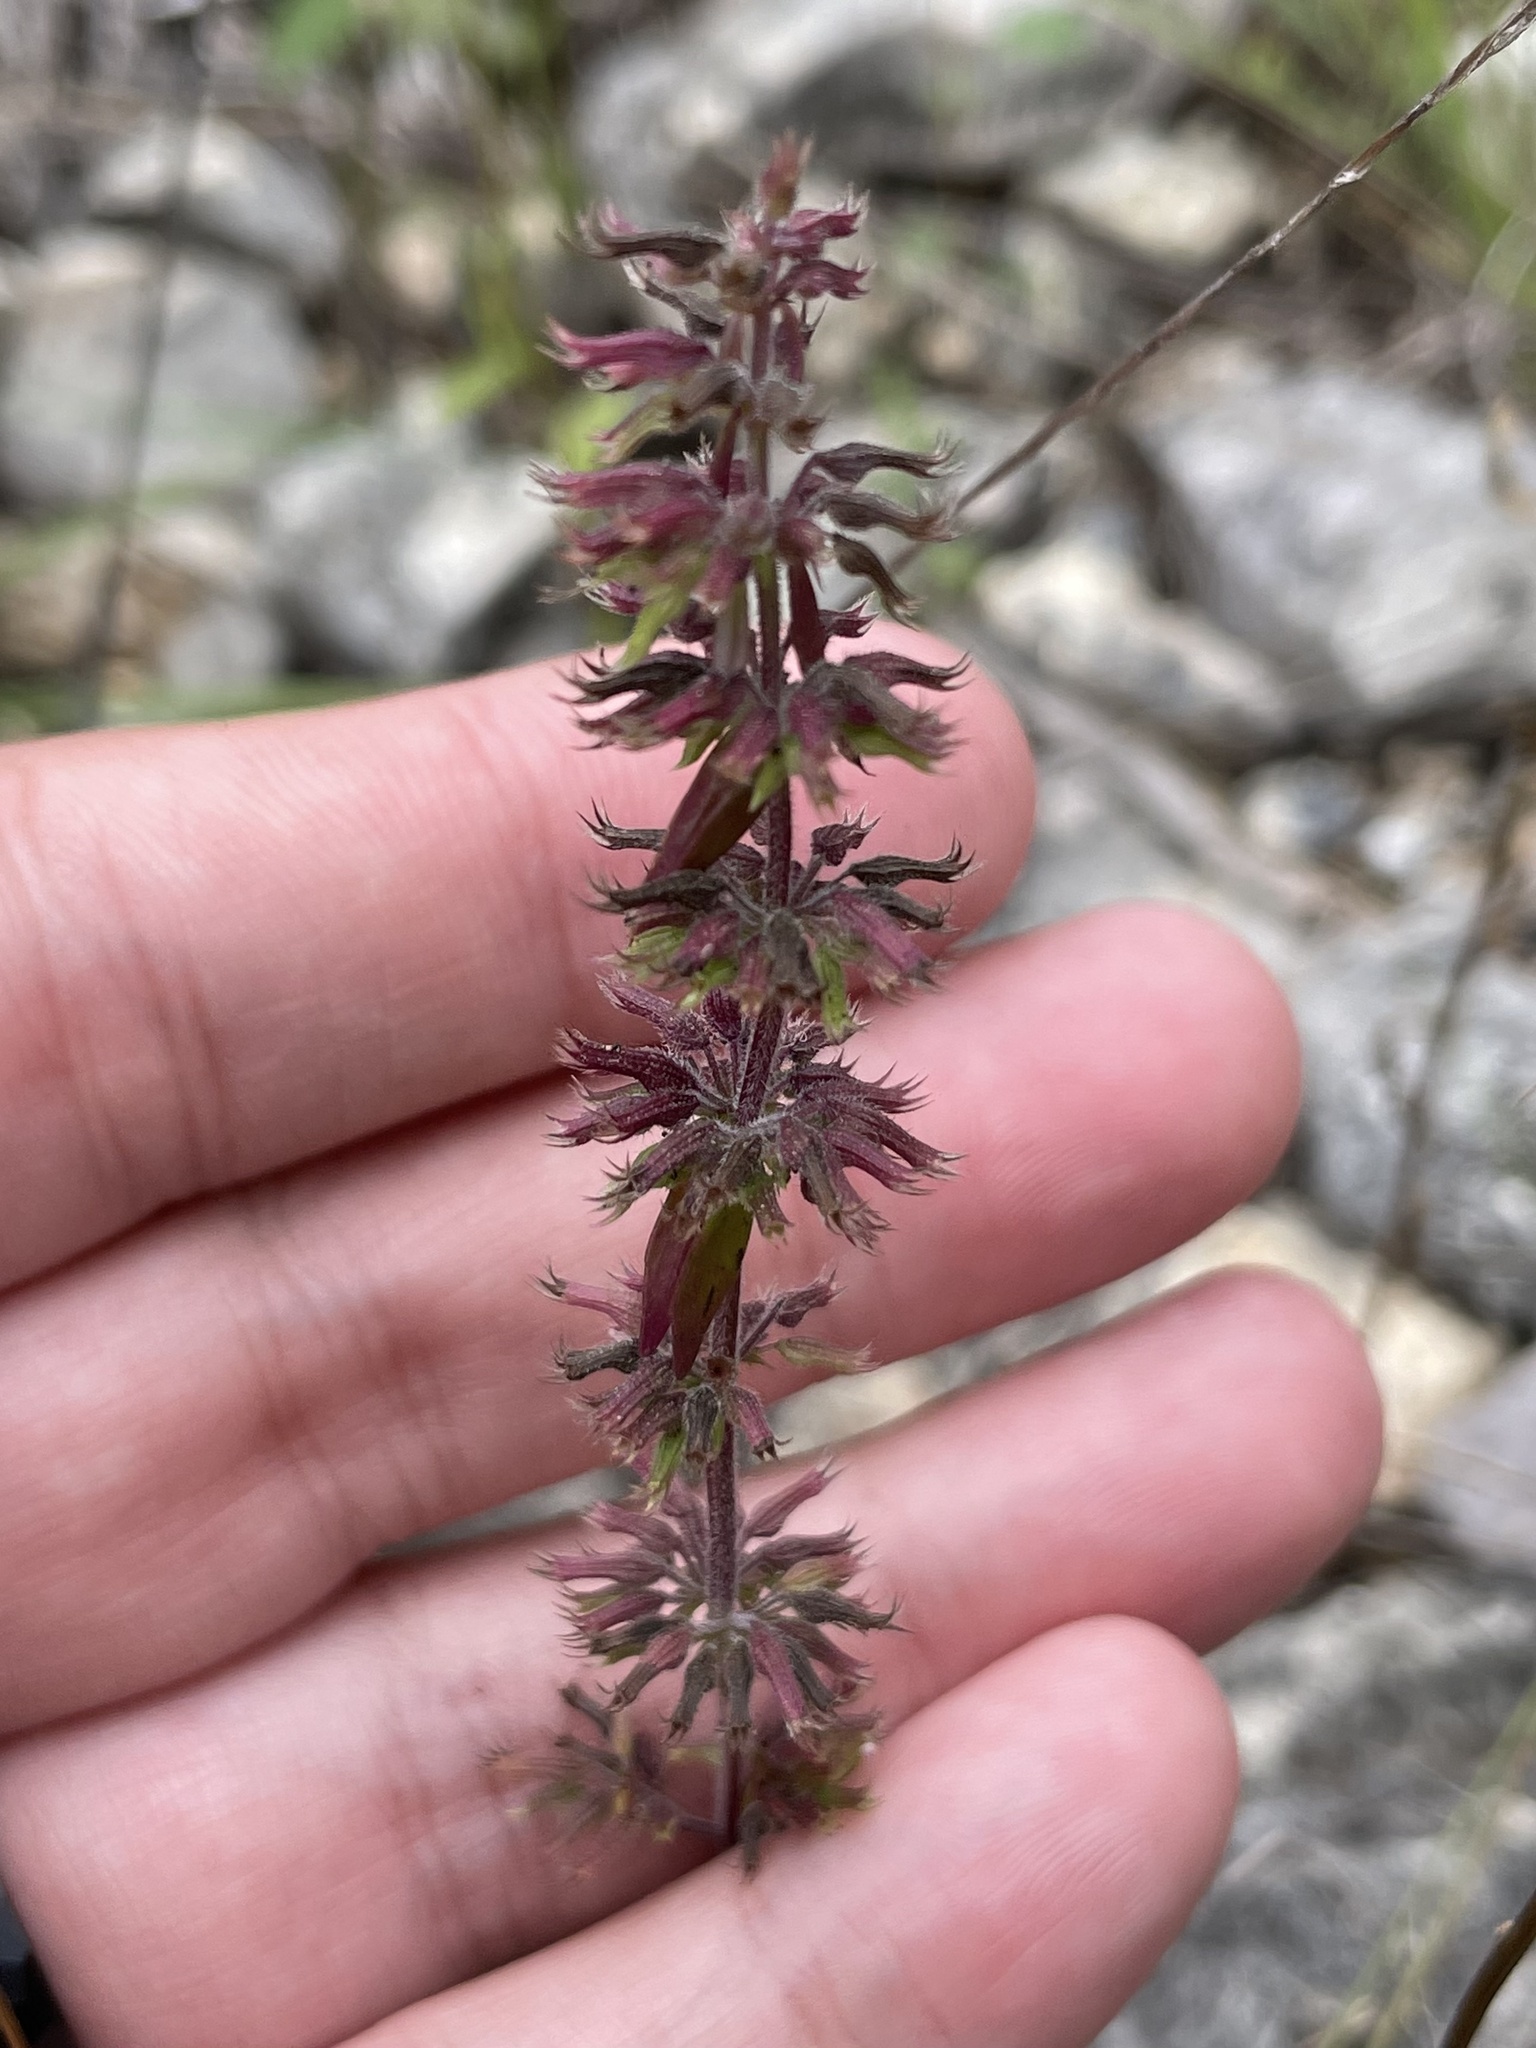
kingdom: Plantae
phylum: Tracheophyta
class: Magnoliopsida
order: Lamiales
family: Lamiaceae
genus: Hedeoma
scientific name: Hedeoma acinoides
